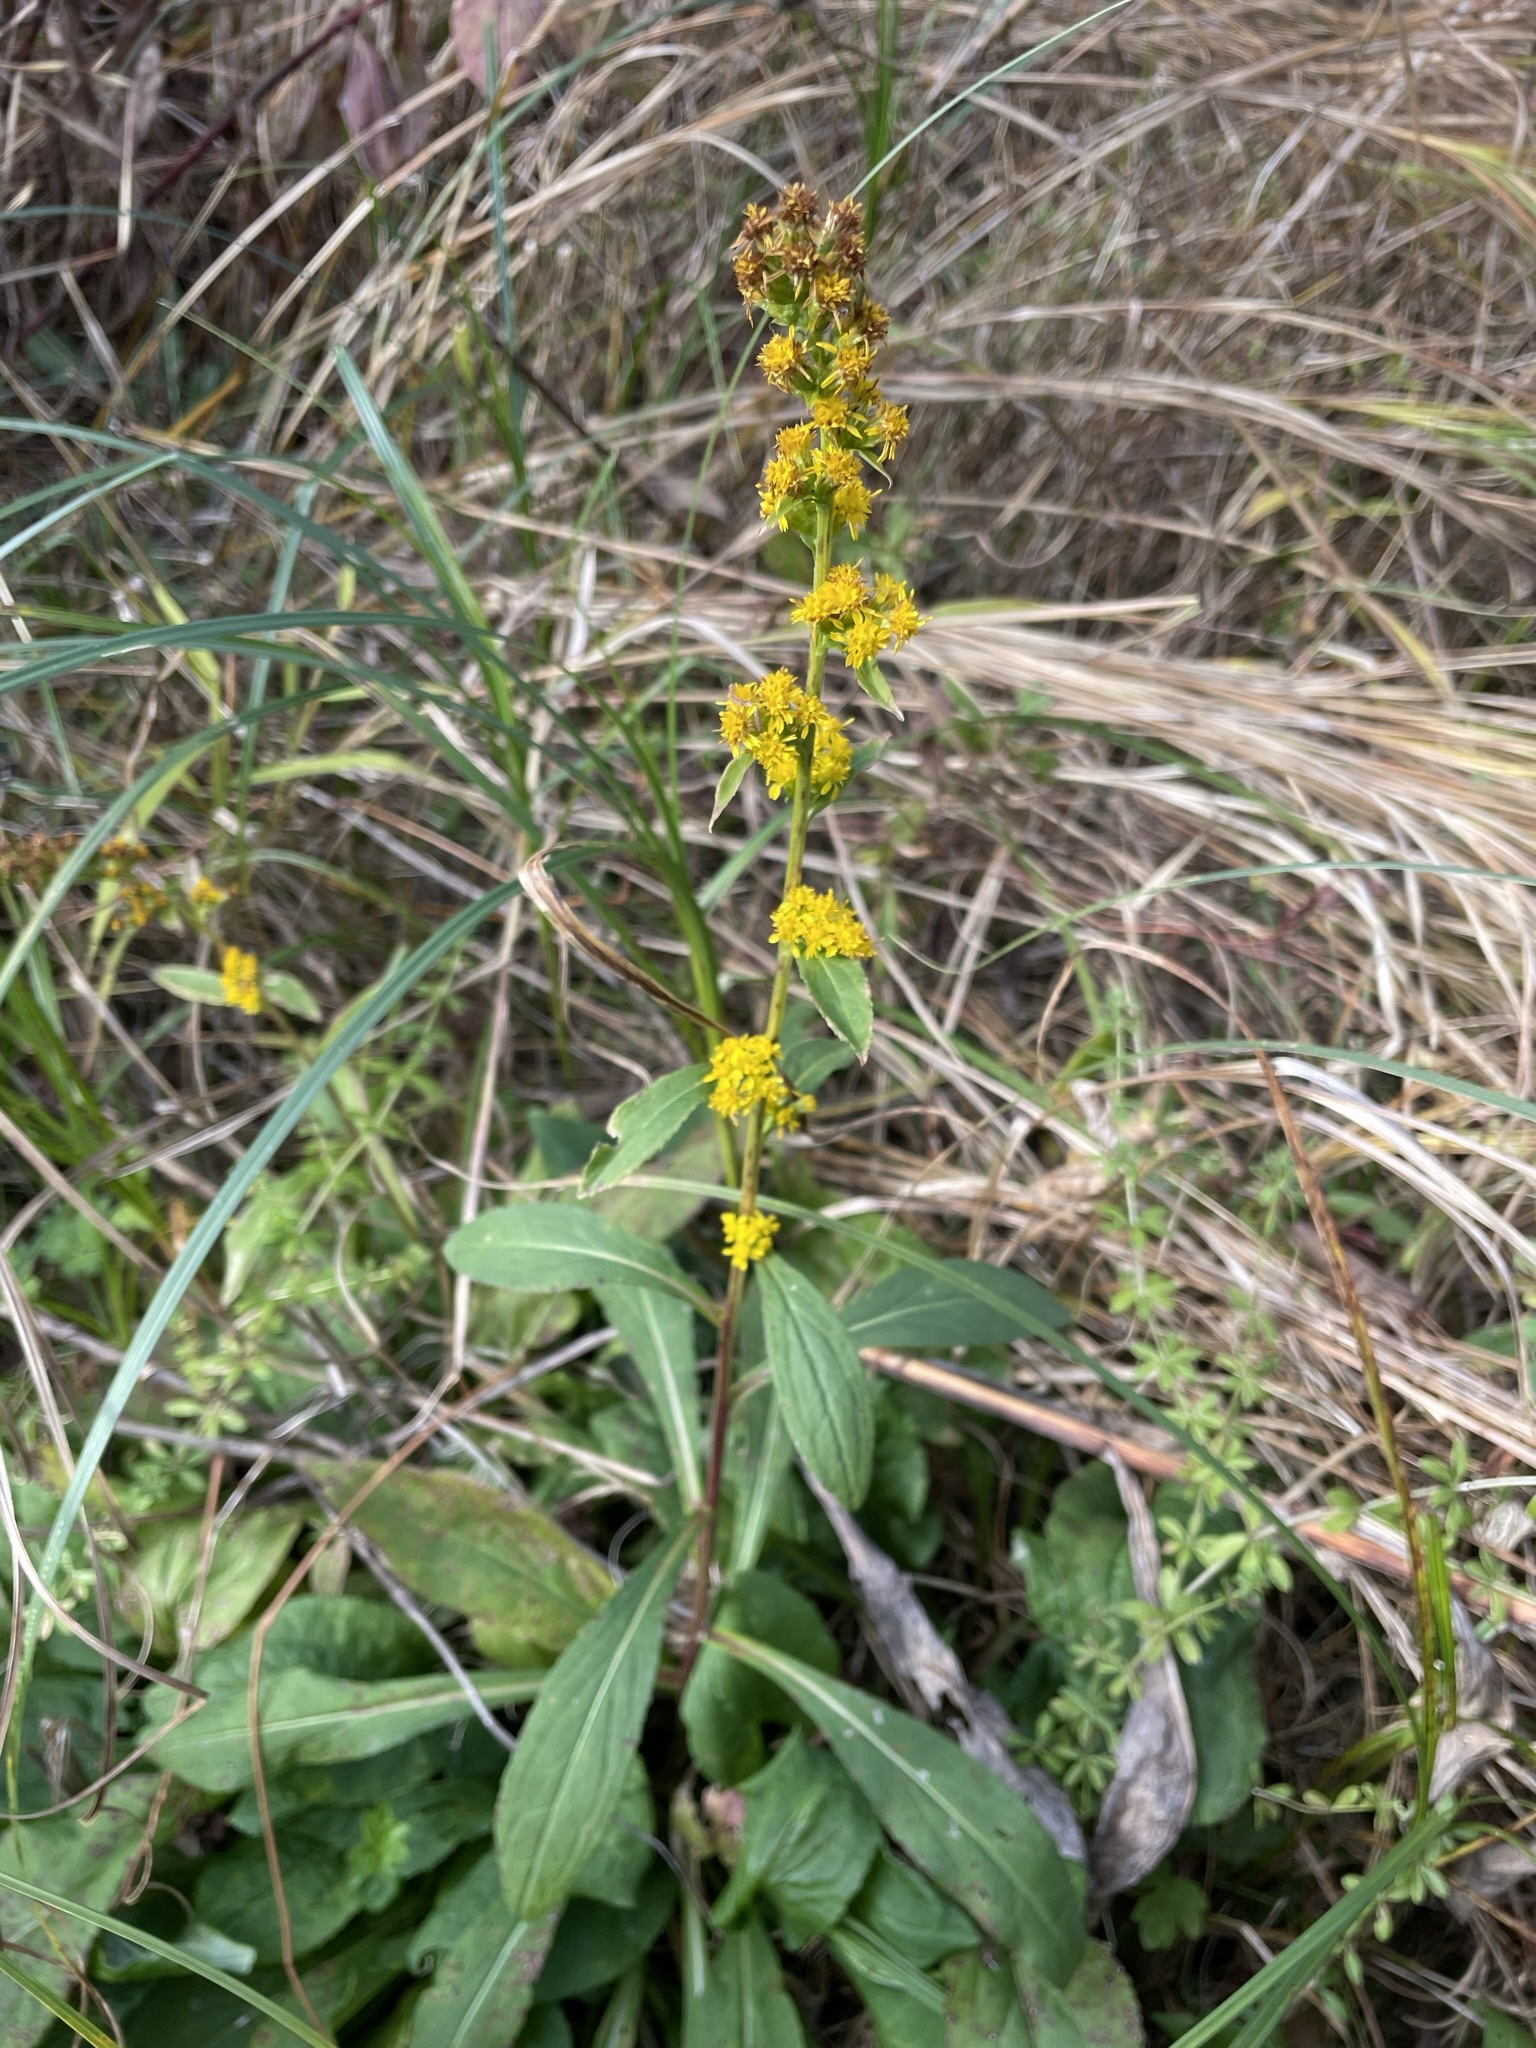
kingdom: Plantae
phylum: Tracheophyta
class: Magnoliopsida
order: Asterales
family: Asteraceae
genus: Solidago
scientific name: Solidago patula
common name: Rough-leaf goldenrod
